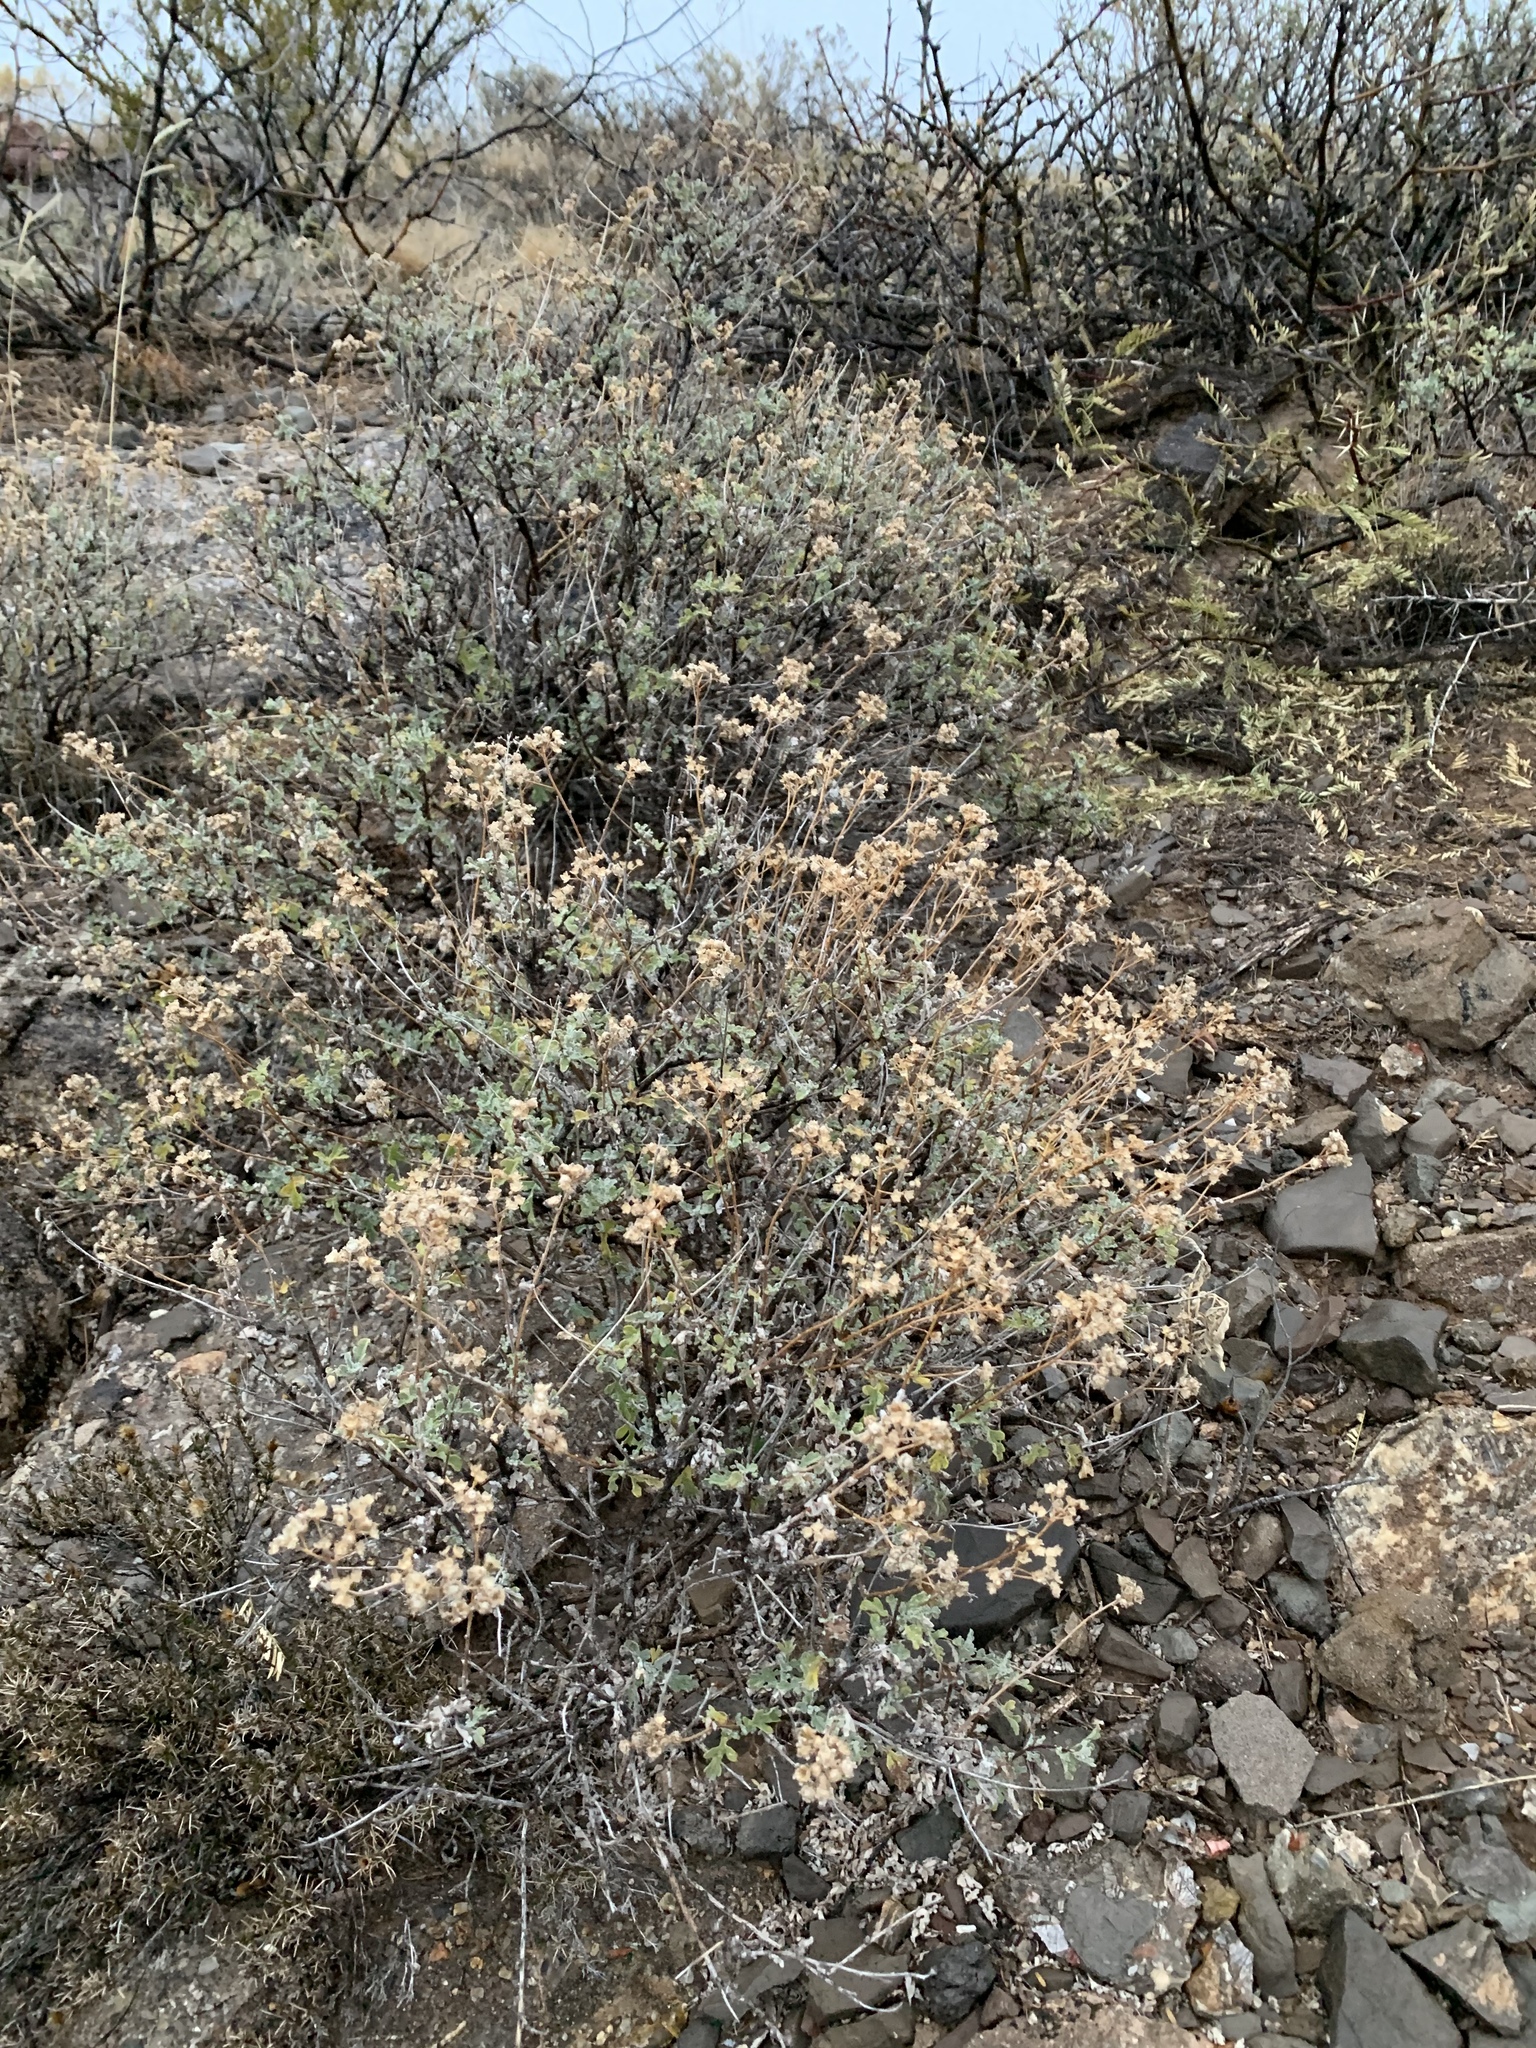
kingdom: Plantae
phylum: Tracheophyta
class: Magnoliopsida
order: Asterales
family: Asteraceae
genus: Parthenium
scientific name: Parthenium incanum
